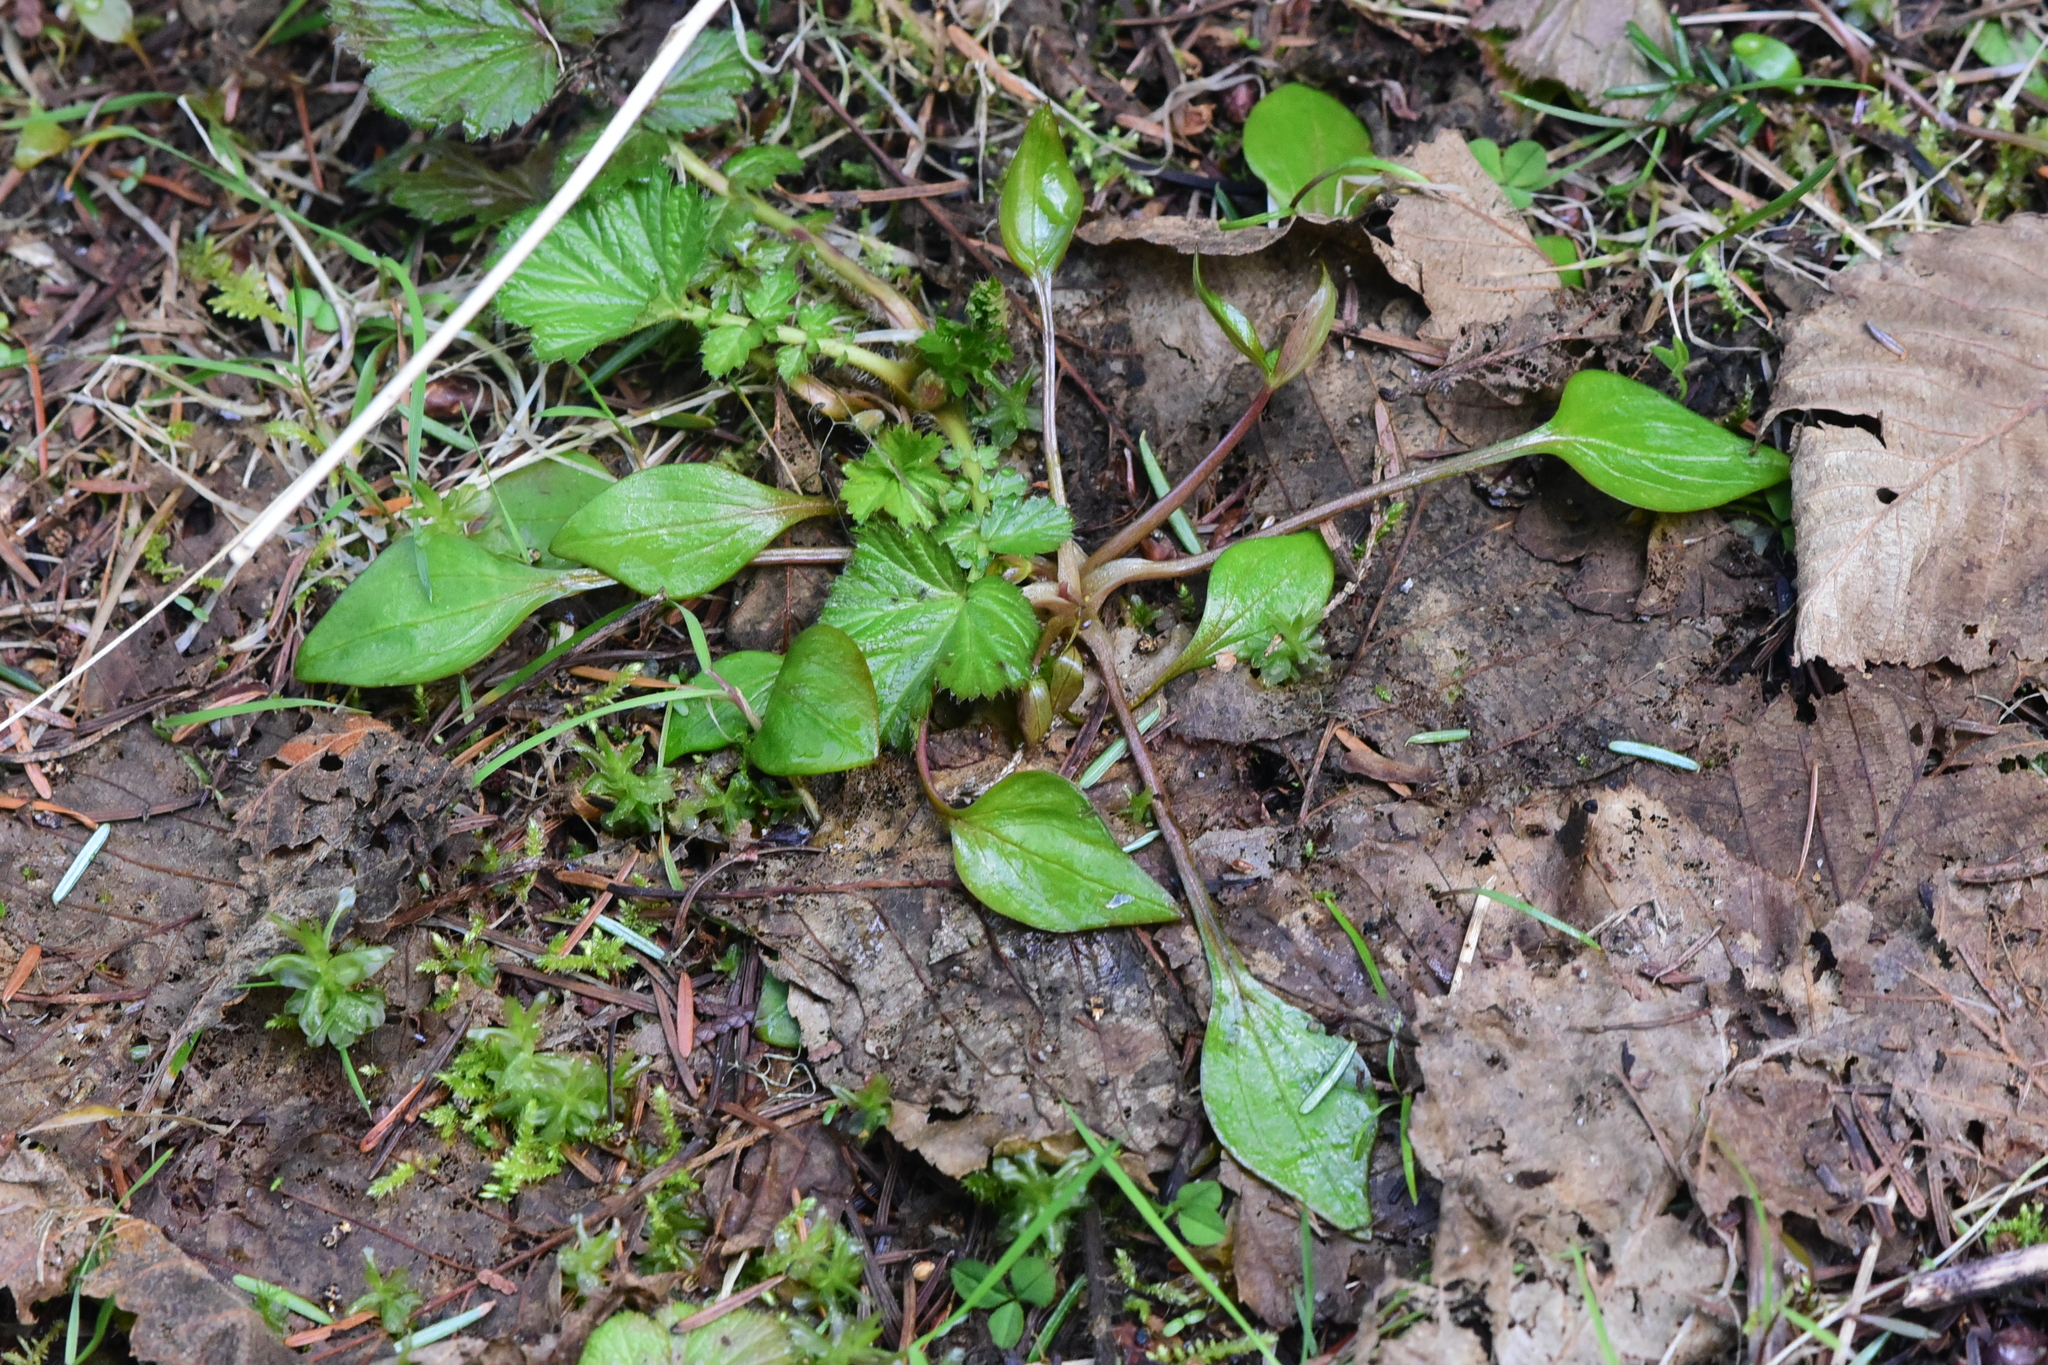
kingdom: Plantae
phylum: Tracheophyta
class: Magnoliopsida
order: Caryophyllales
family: Montiaceae
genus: Claytonia
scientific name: Claytonia sibirica
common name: Pink purslane
